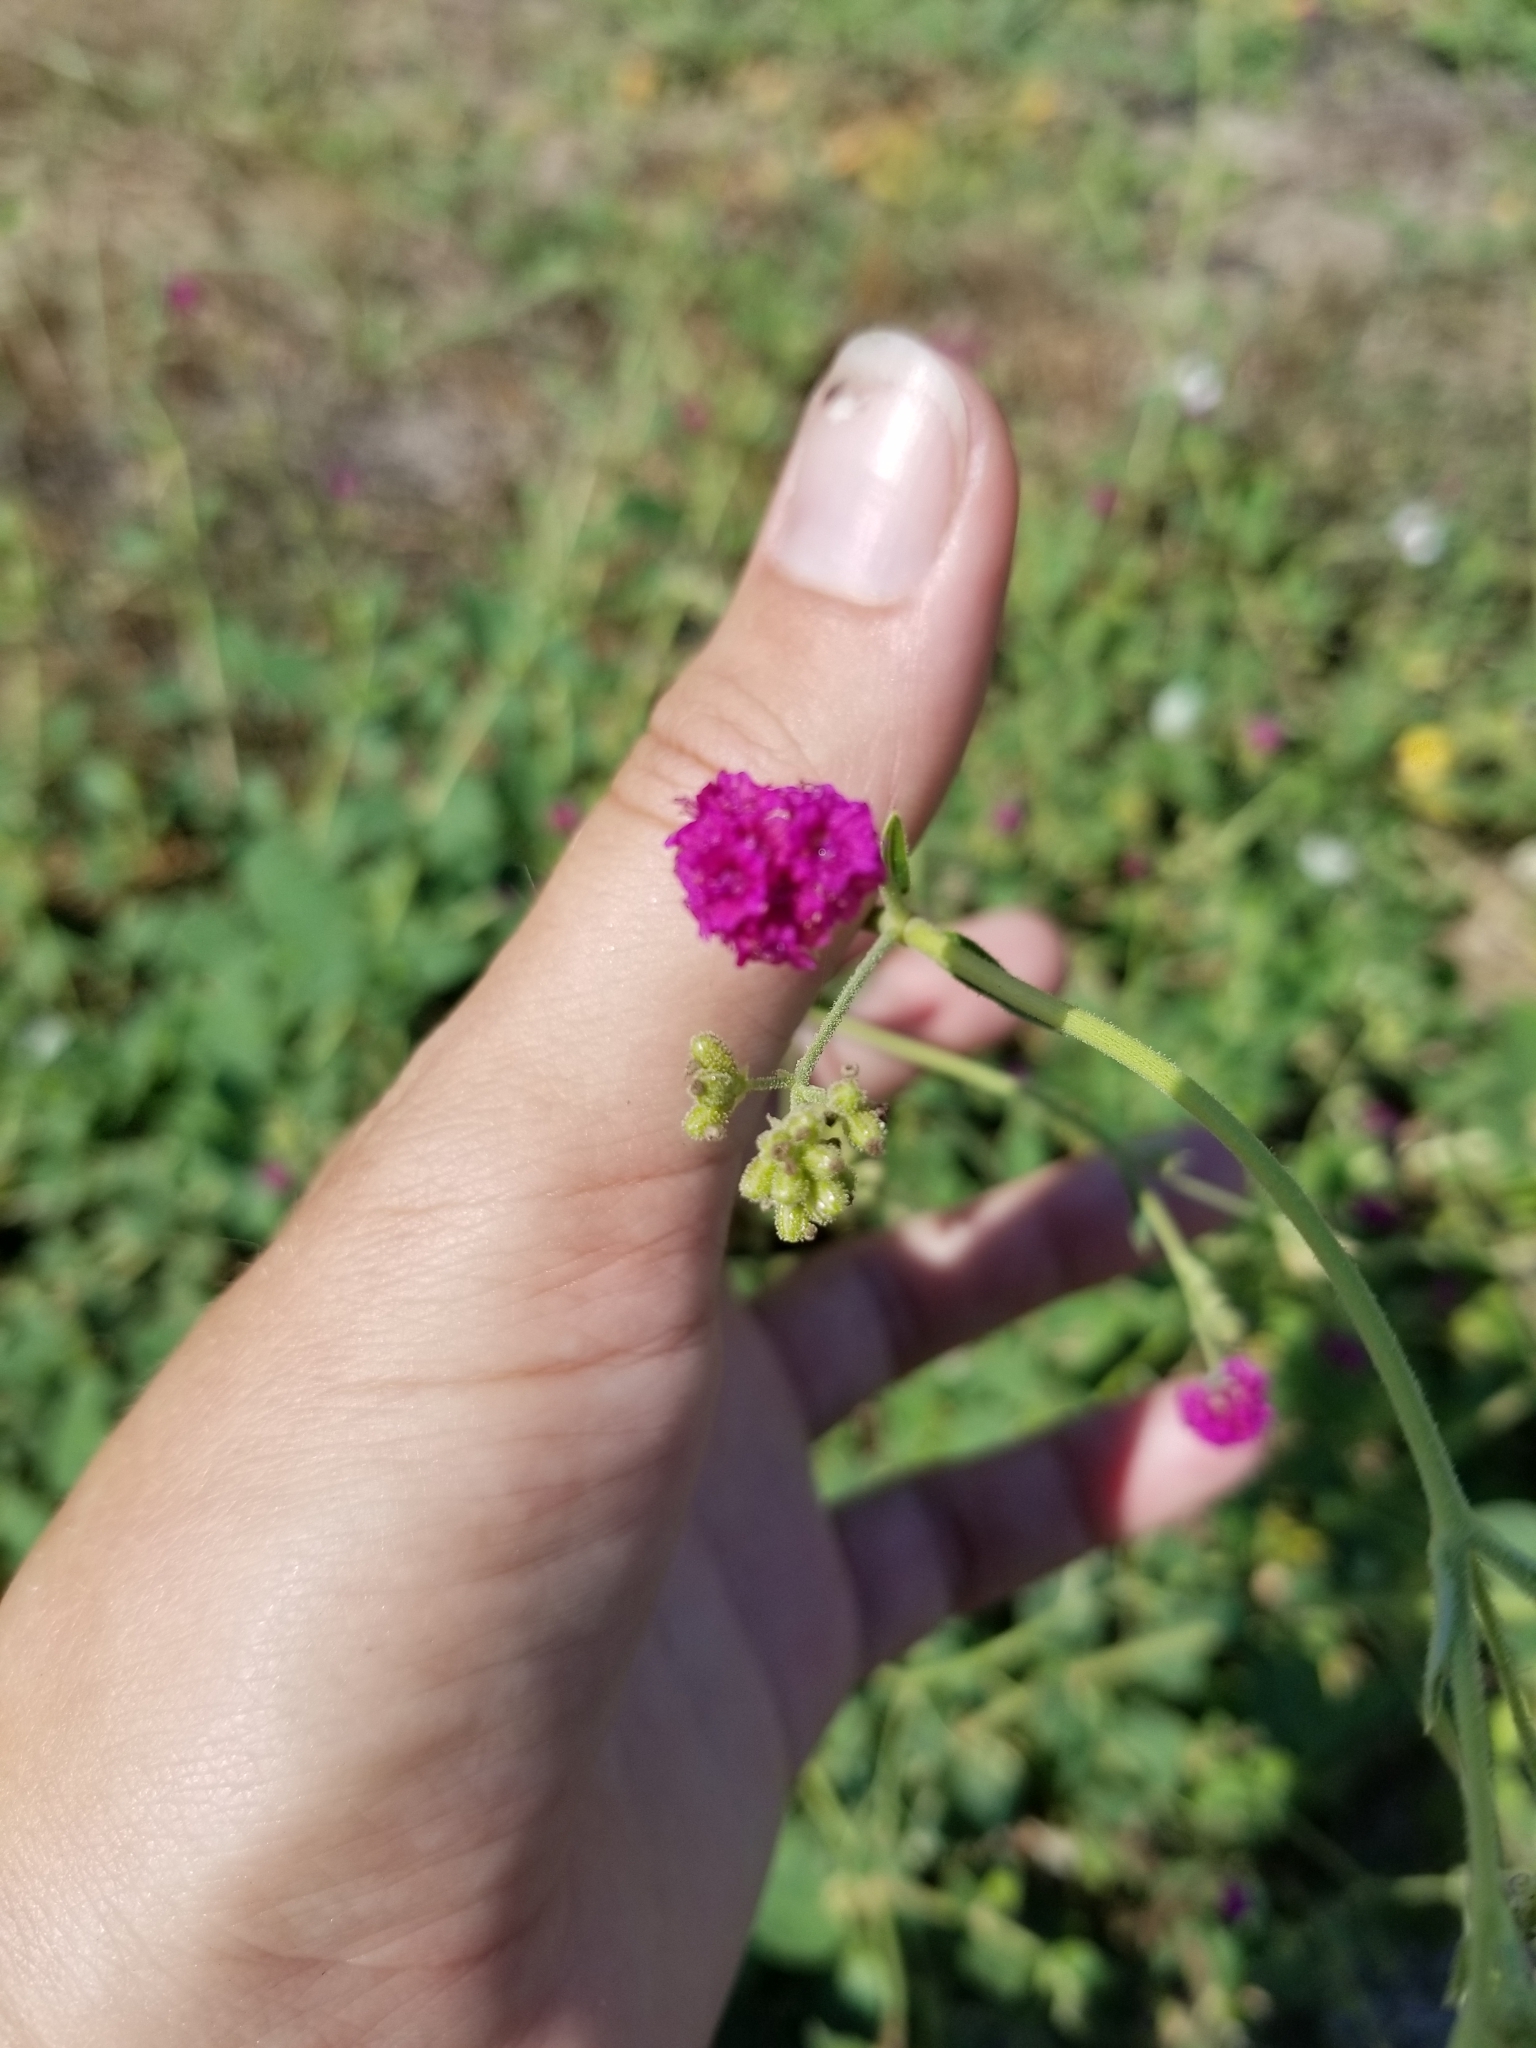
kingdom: Plantae
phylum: Tracheophyta
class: Magnoliopsida
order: Caryophyllales
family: Nyctaginaceae
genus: Boerhavia
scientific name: Boerhavia coccinea
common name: Scarlet spiderling
